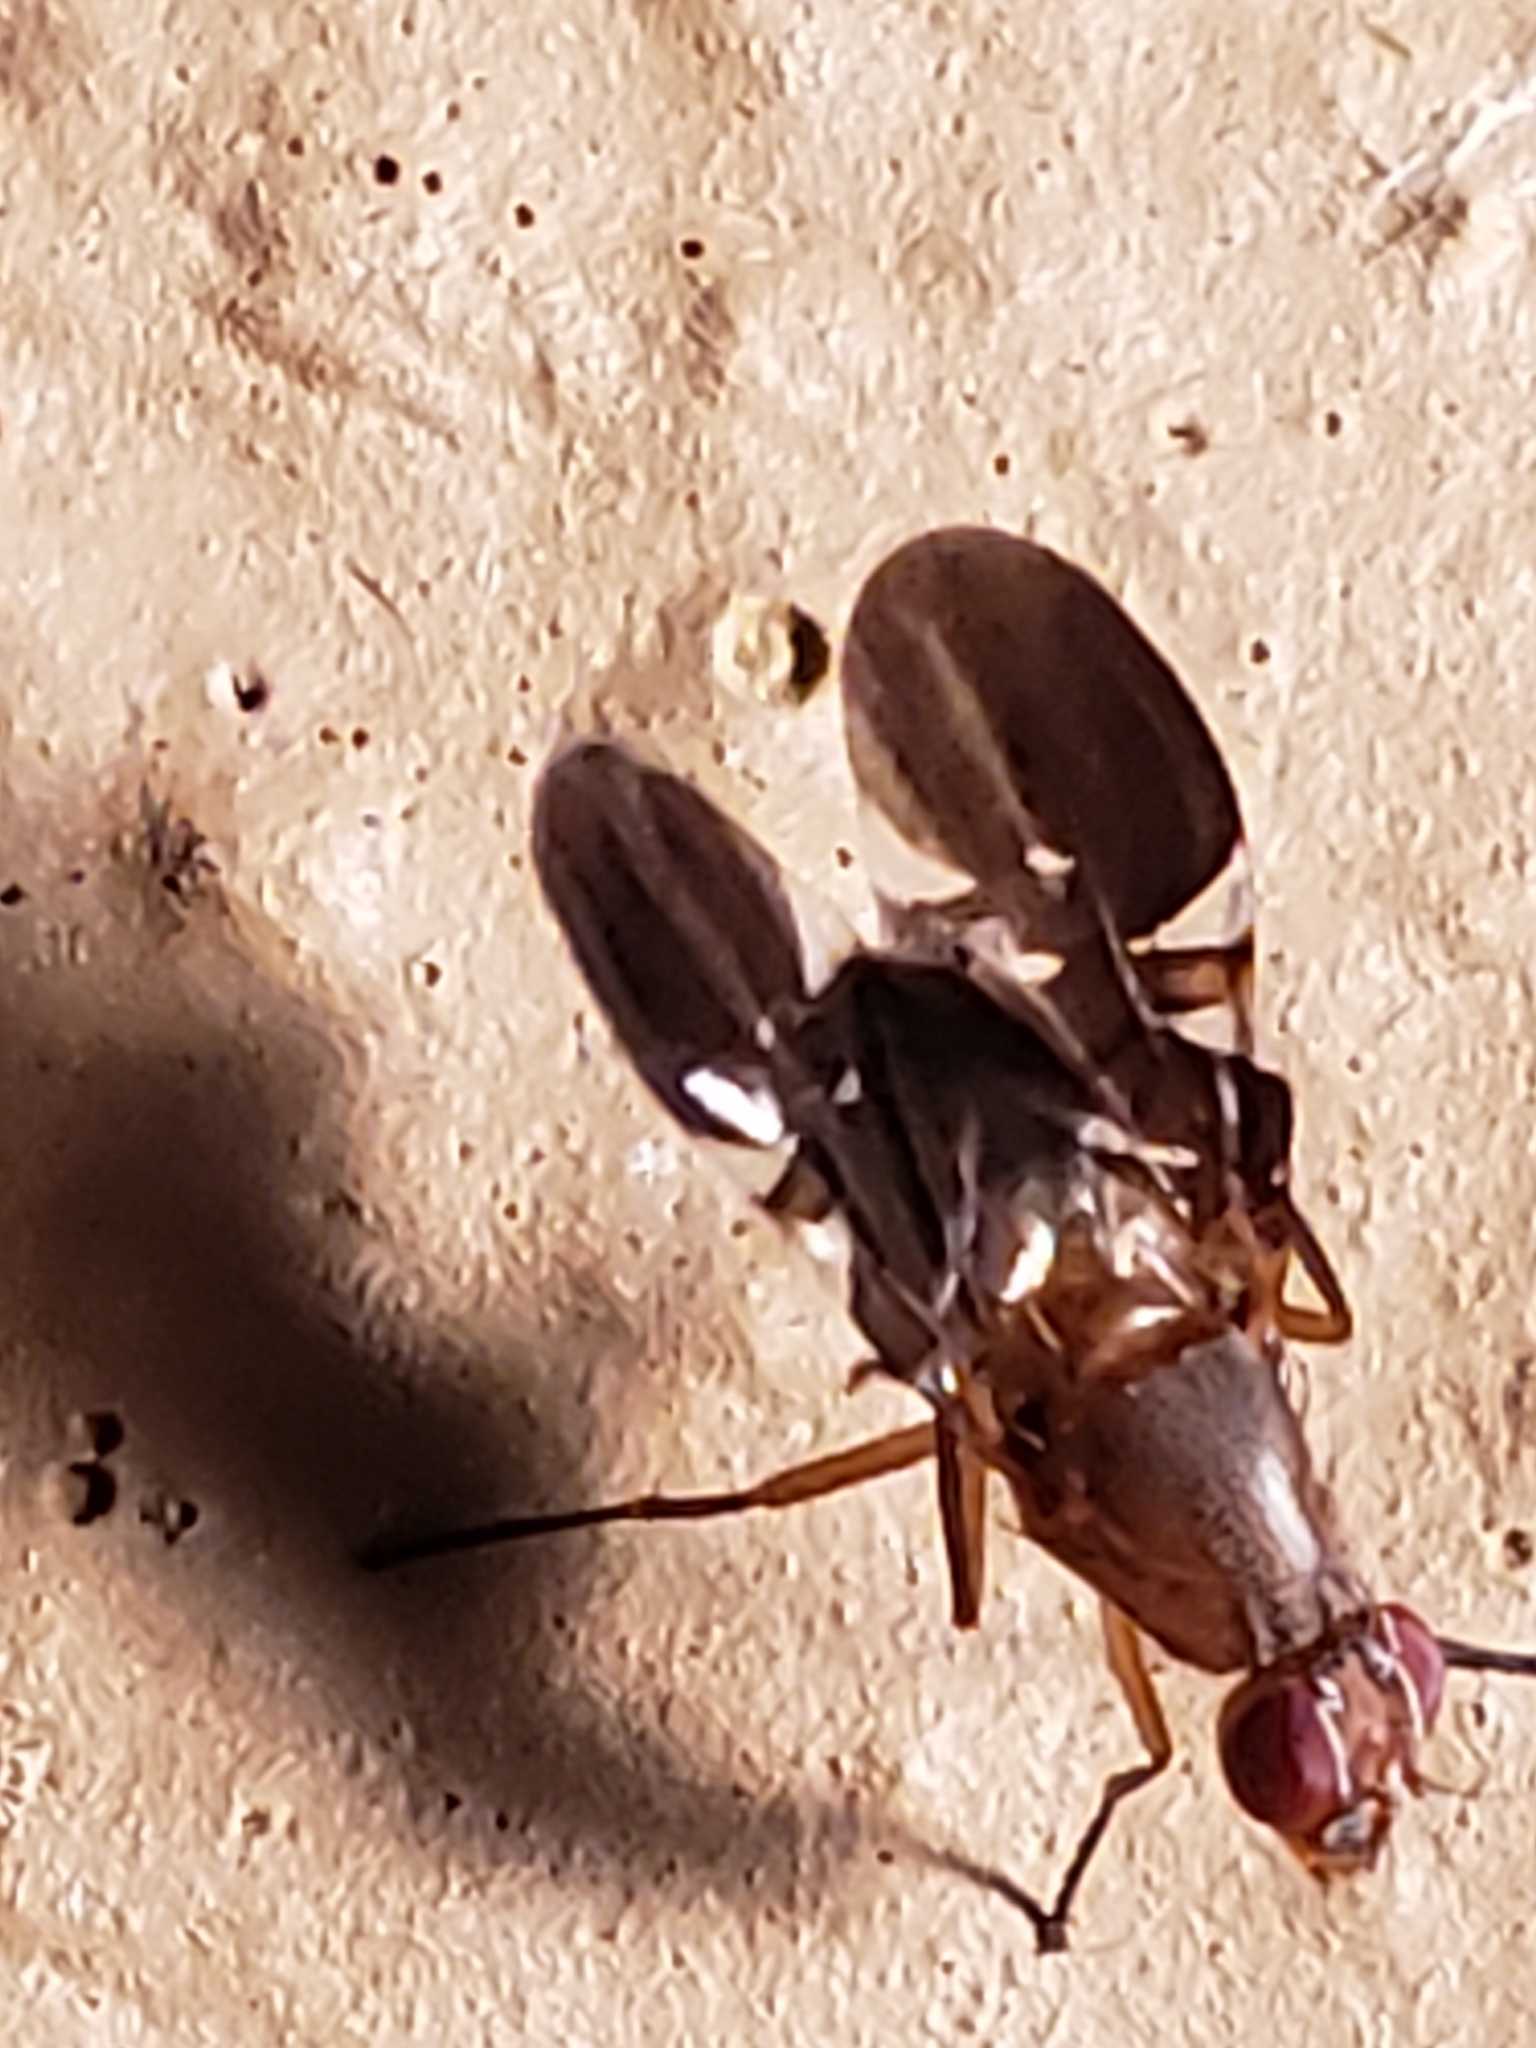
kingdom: Animalia
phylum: Arthropoda
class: Insecta
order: Diptera
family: Ulidiidae
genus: Delphinia
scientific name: Delphinia picta
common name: Common picture-winged fly
